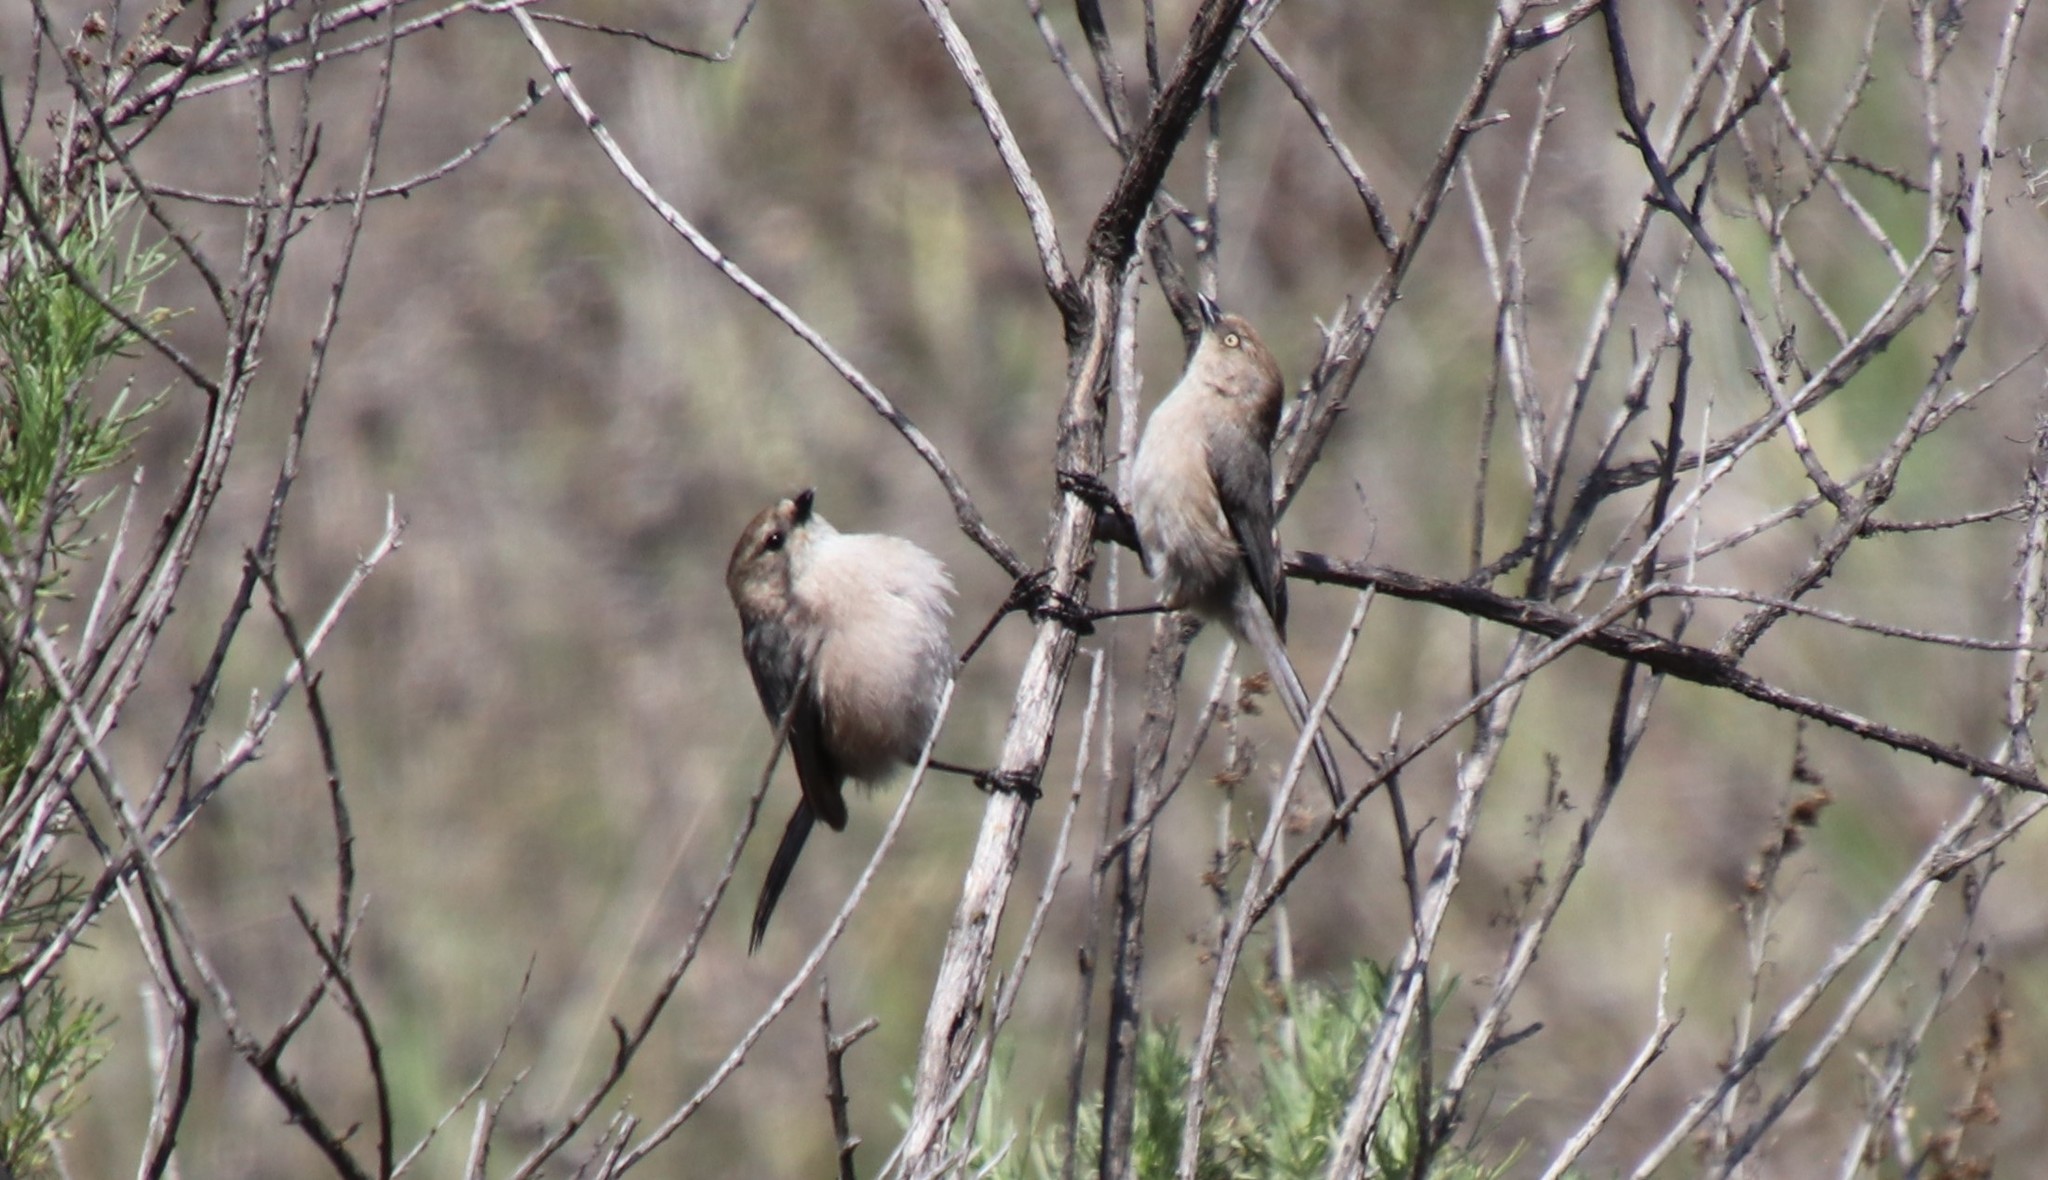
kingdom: Animalia
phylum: Chordata
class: Aves
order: Passeriformes
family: Aegithalidae
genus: Psaltriparus
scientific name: Psaltriparus minimus
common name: American bushtit
